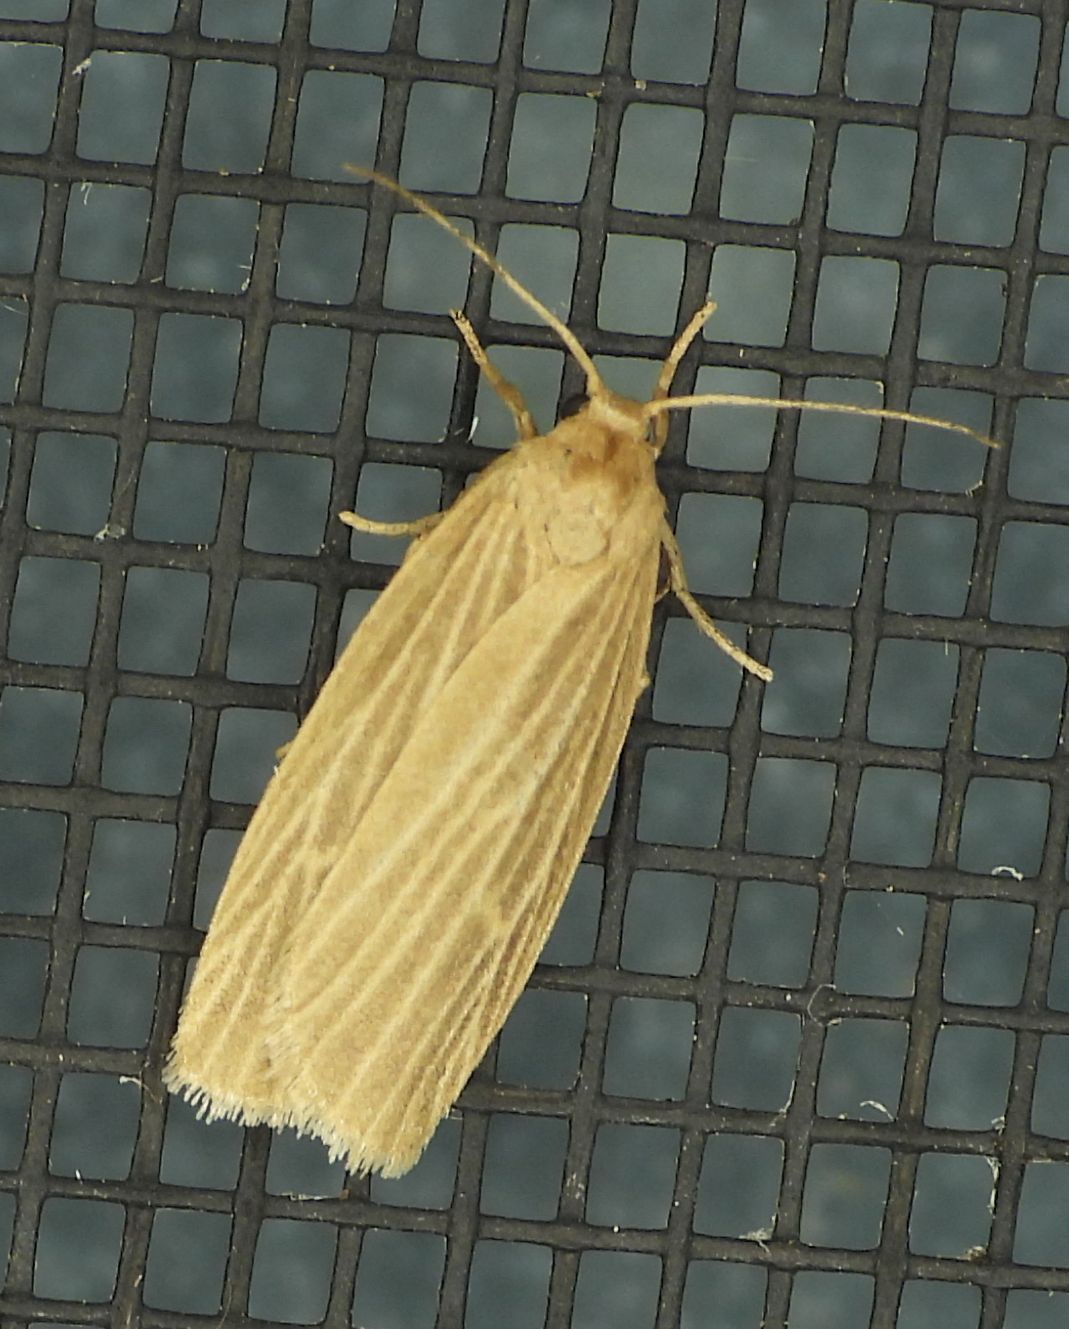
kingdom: Animalia
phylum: Arthropoda
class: Insecta
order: Lepidoptera
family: Erebidae
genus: Crambidia
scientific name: Crambidia pallida
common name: Pale lichen moth
